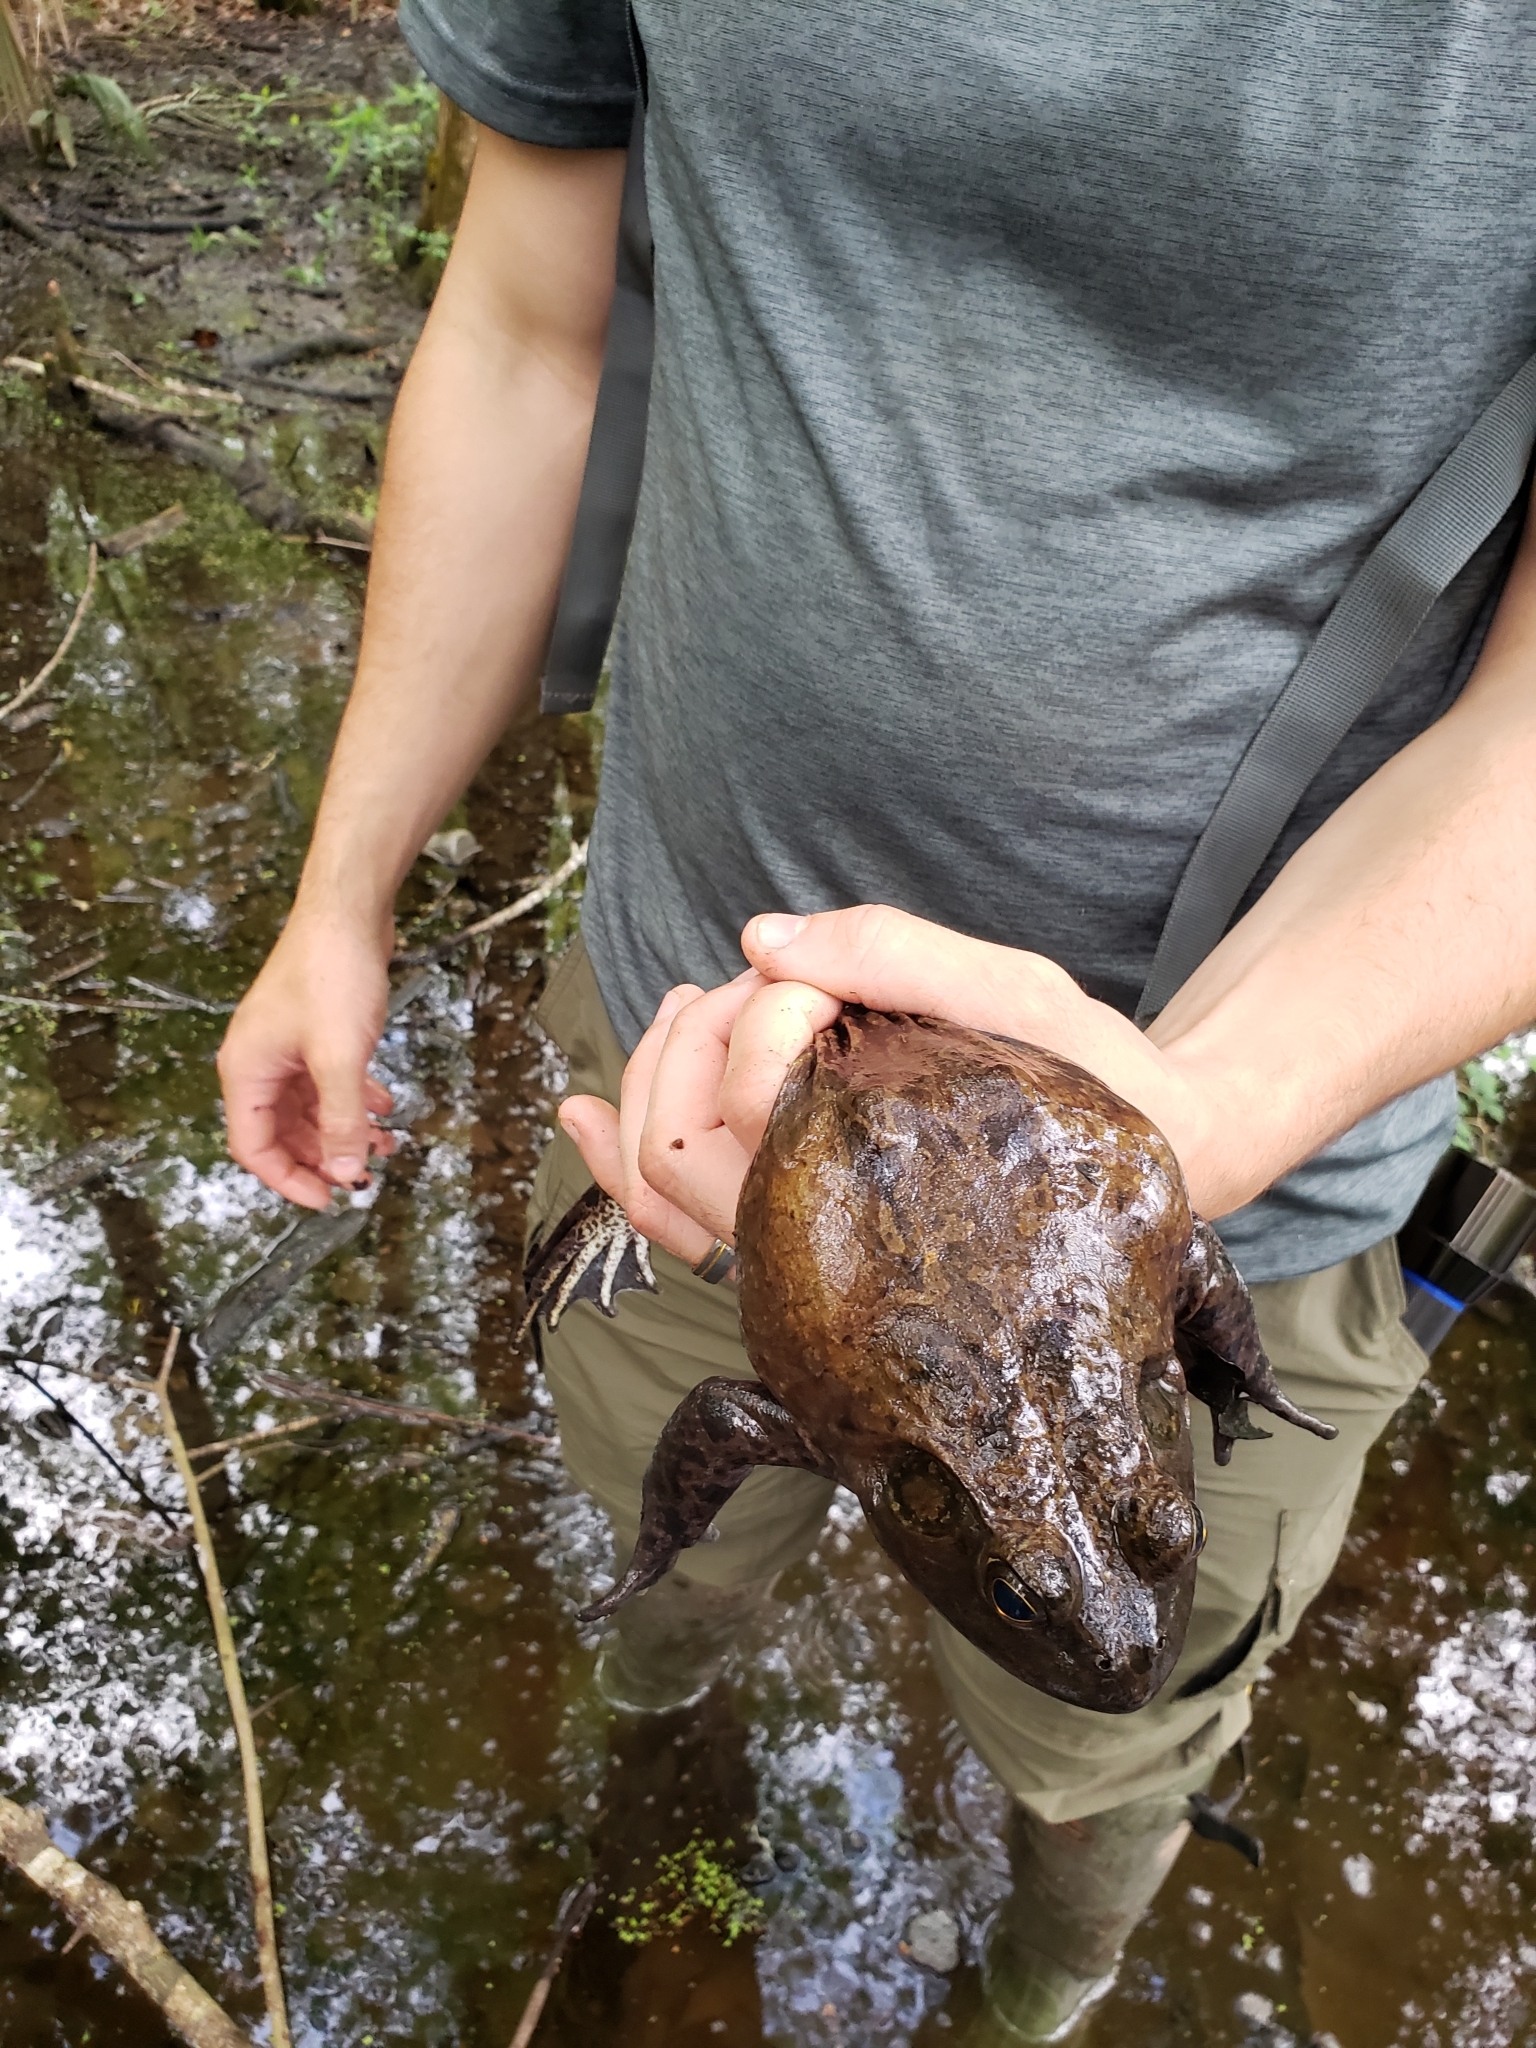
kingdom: Animalia
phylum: Chordata
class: Amphibia
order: Anura
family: Ranidae
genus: Lithobates
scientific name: Lithobates catesbeianus
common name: American bullfrog
